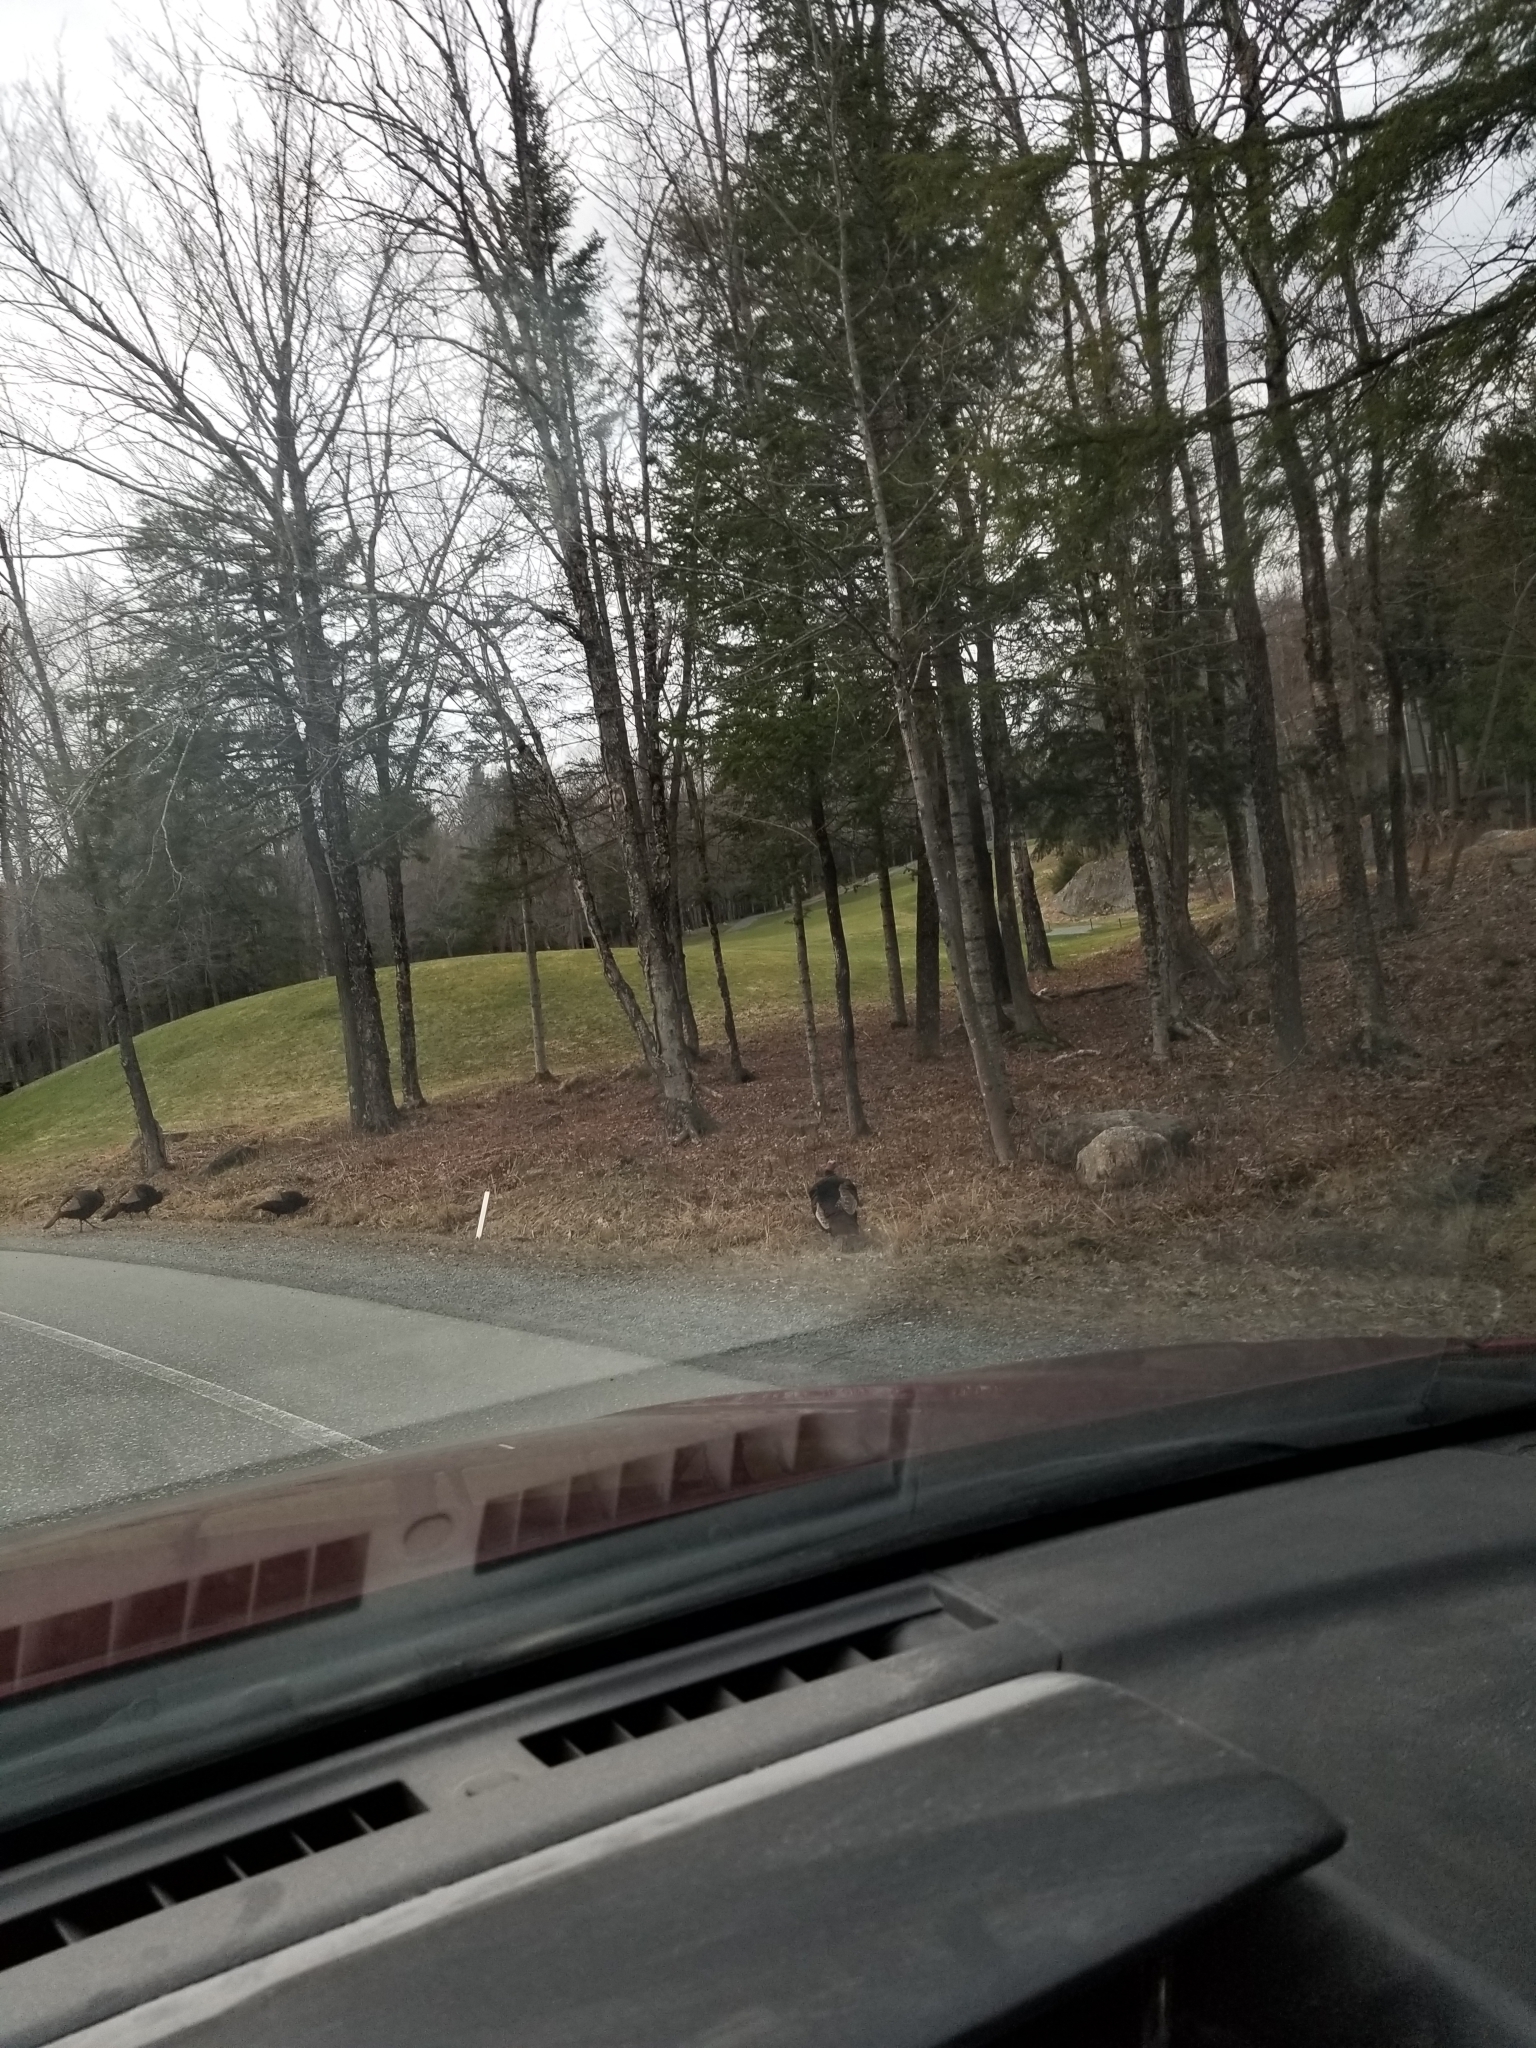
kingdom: Animalia
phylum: Chordata
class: Aves
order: Galliformes
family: Phasianidae
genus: Meleagris
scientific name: Meleagris gallopavo
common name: Wild turkey
